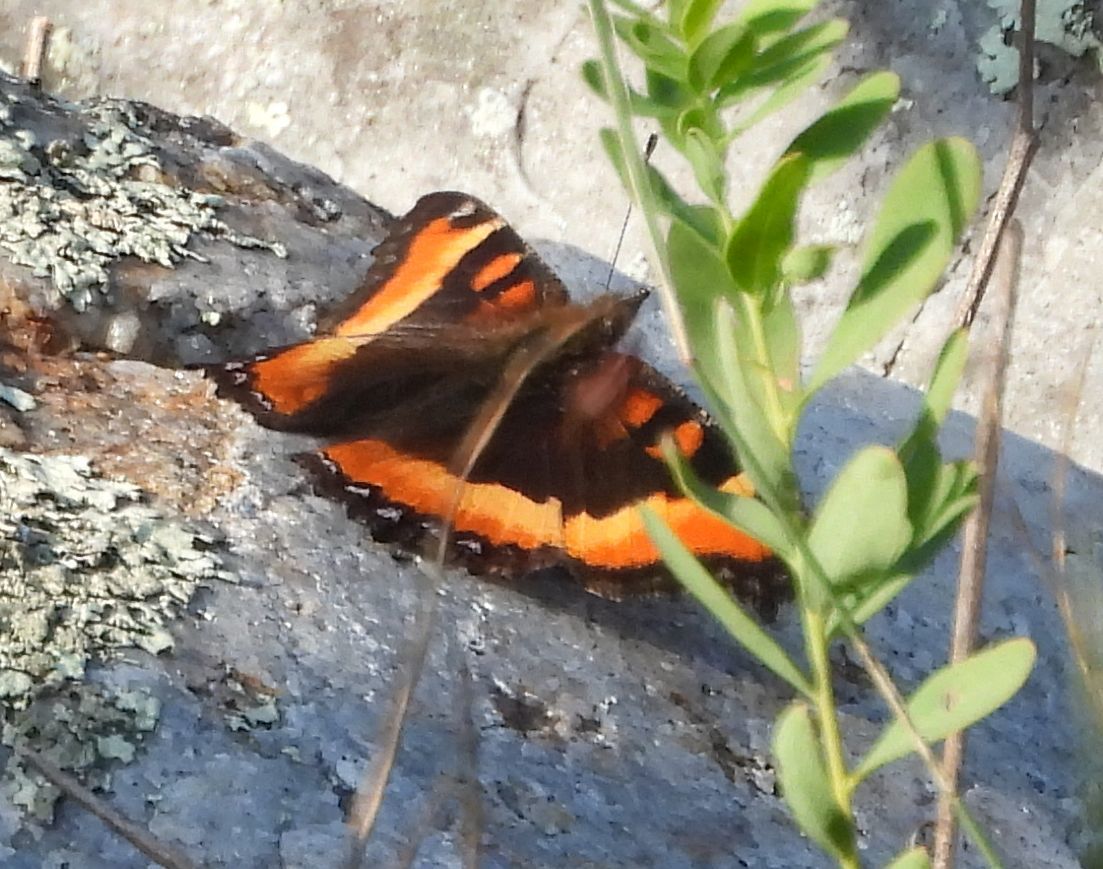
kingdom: Animalia
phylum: Arthropoda
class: Insecta
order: Lepidoptera
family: Nymphalidae
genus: Aglais
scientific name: Aglais milberti
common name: Milbert's tortoiseshell
